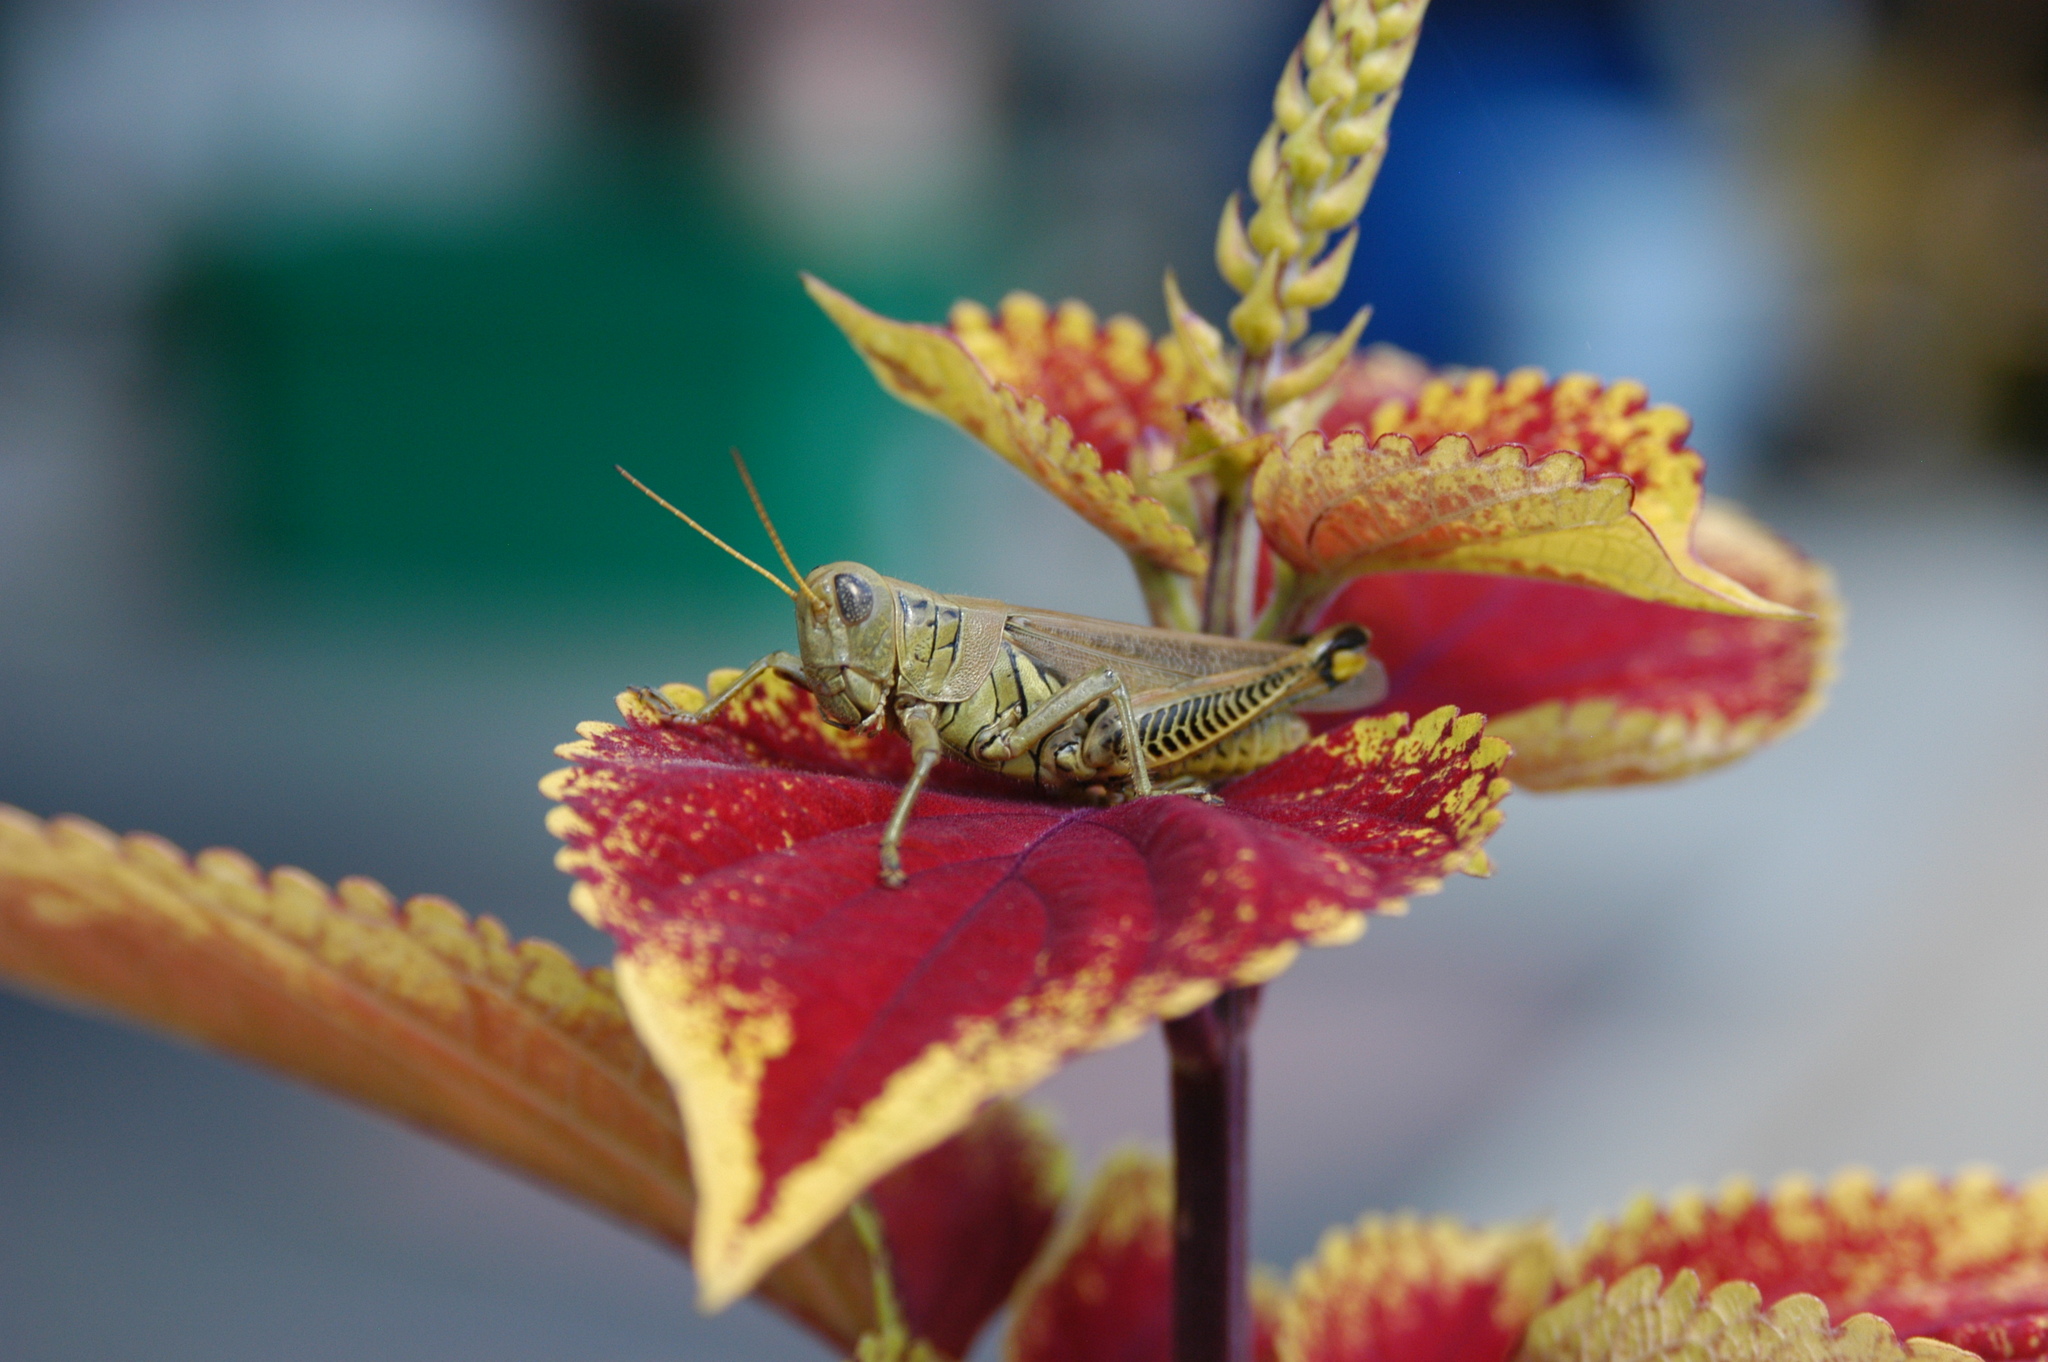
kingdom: Animalia
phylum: Arthropoda
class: Insecta
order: Orthoptera
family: Acrididae
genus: Melanoplus
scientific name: Melanoplus differentialis
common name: Differential grasshopper
